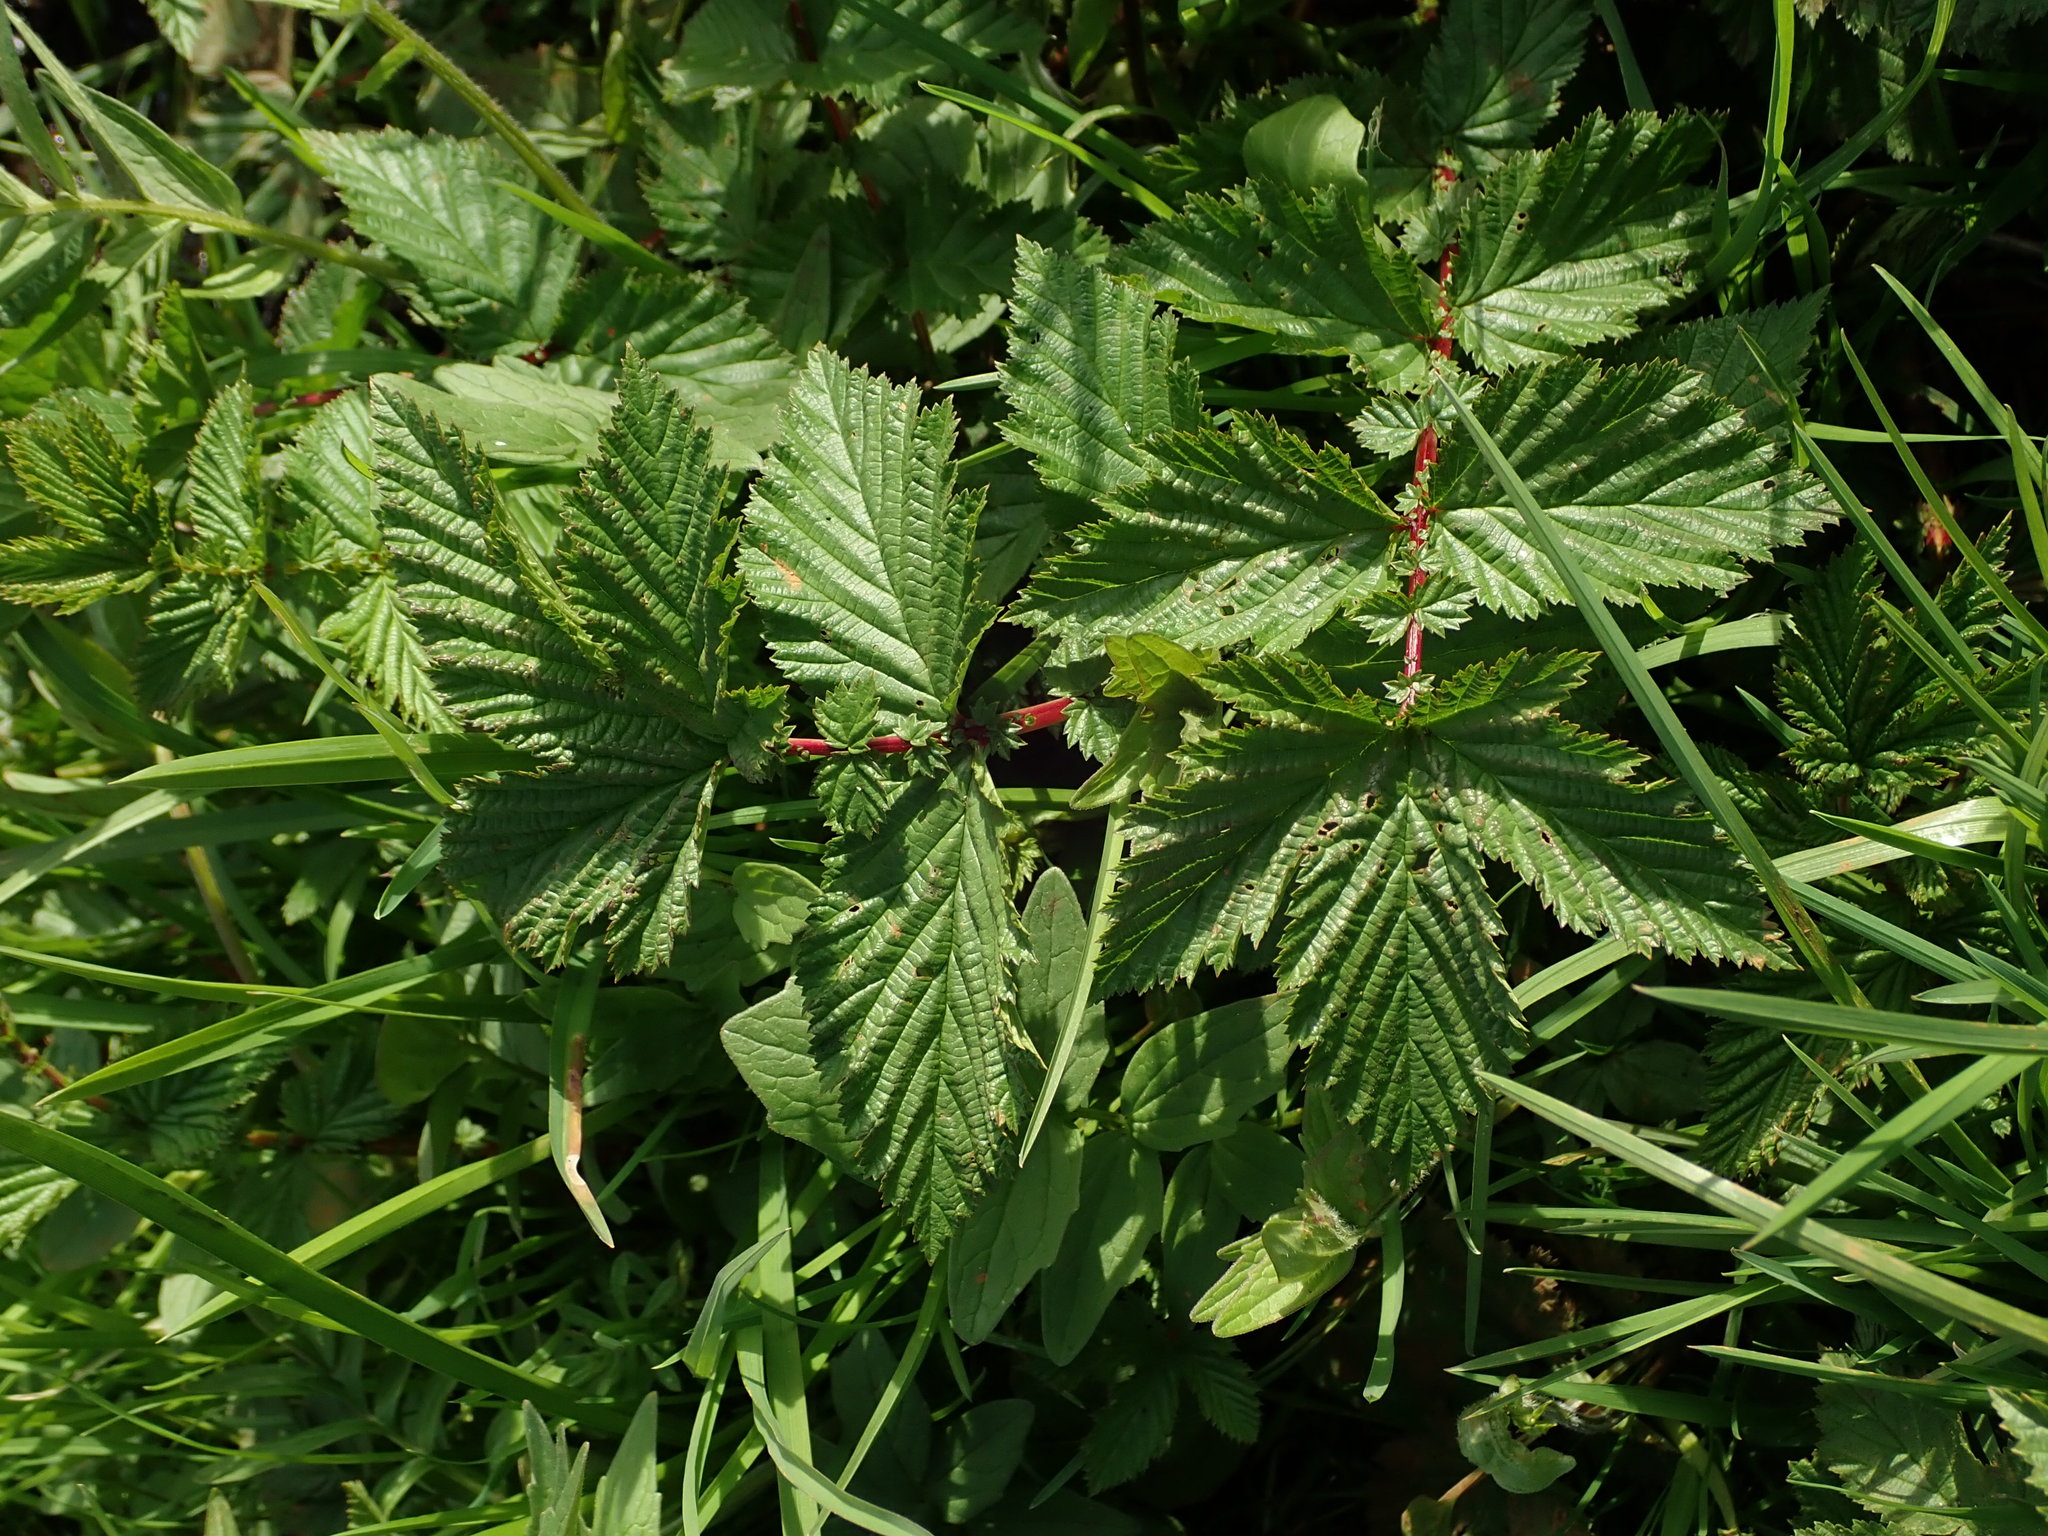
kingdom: Plantae
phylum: Tracheophyta
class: Magnoliopsida
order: Rosales
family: Rosaceae
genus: Filipendula
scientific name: Filipendula ulmaria
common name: Meadowsweet
